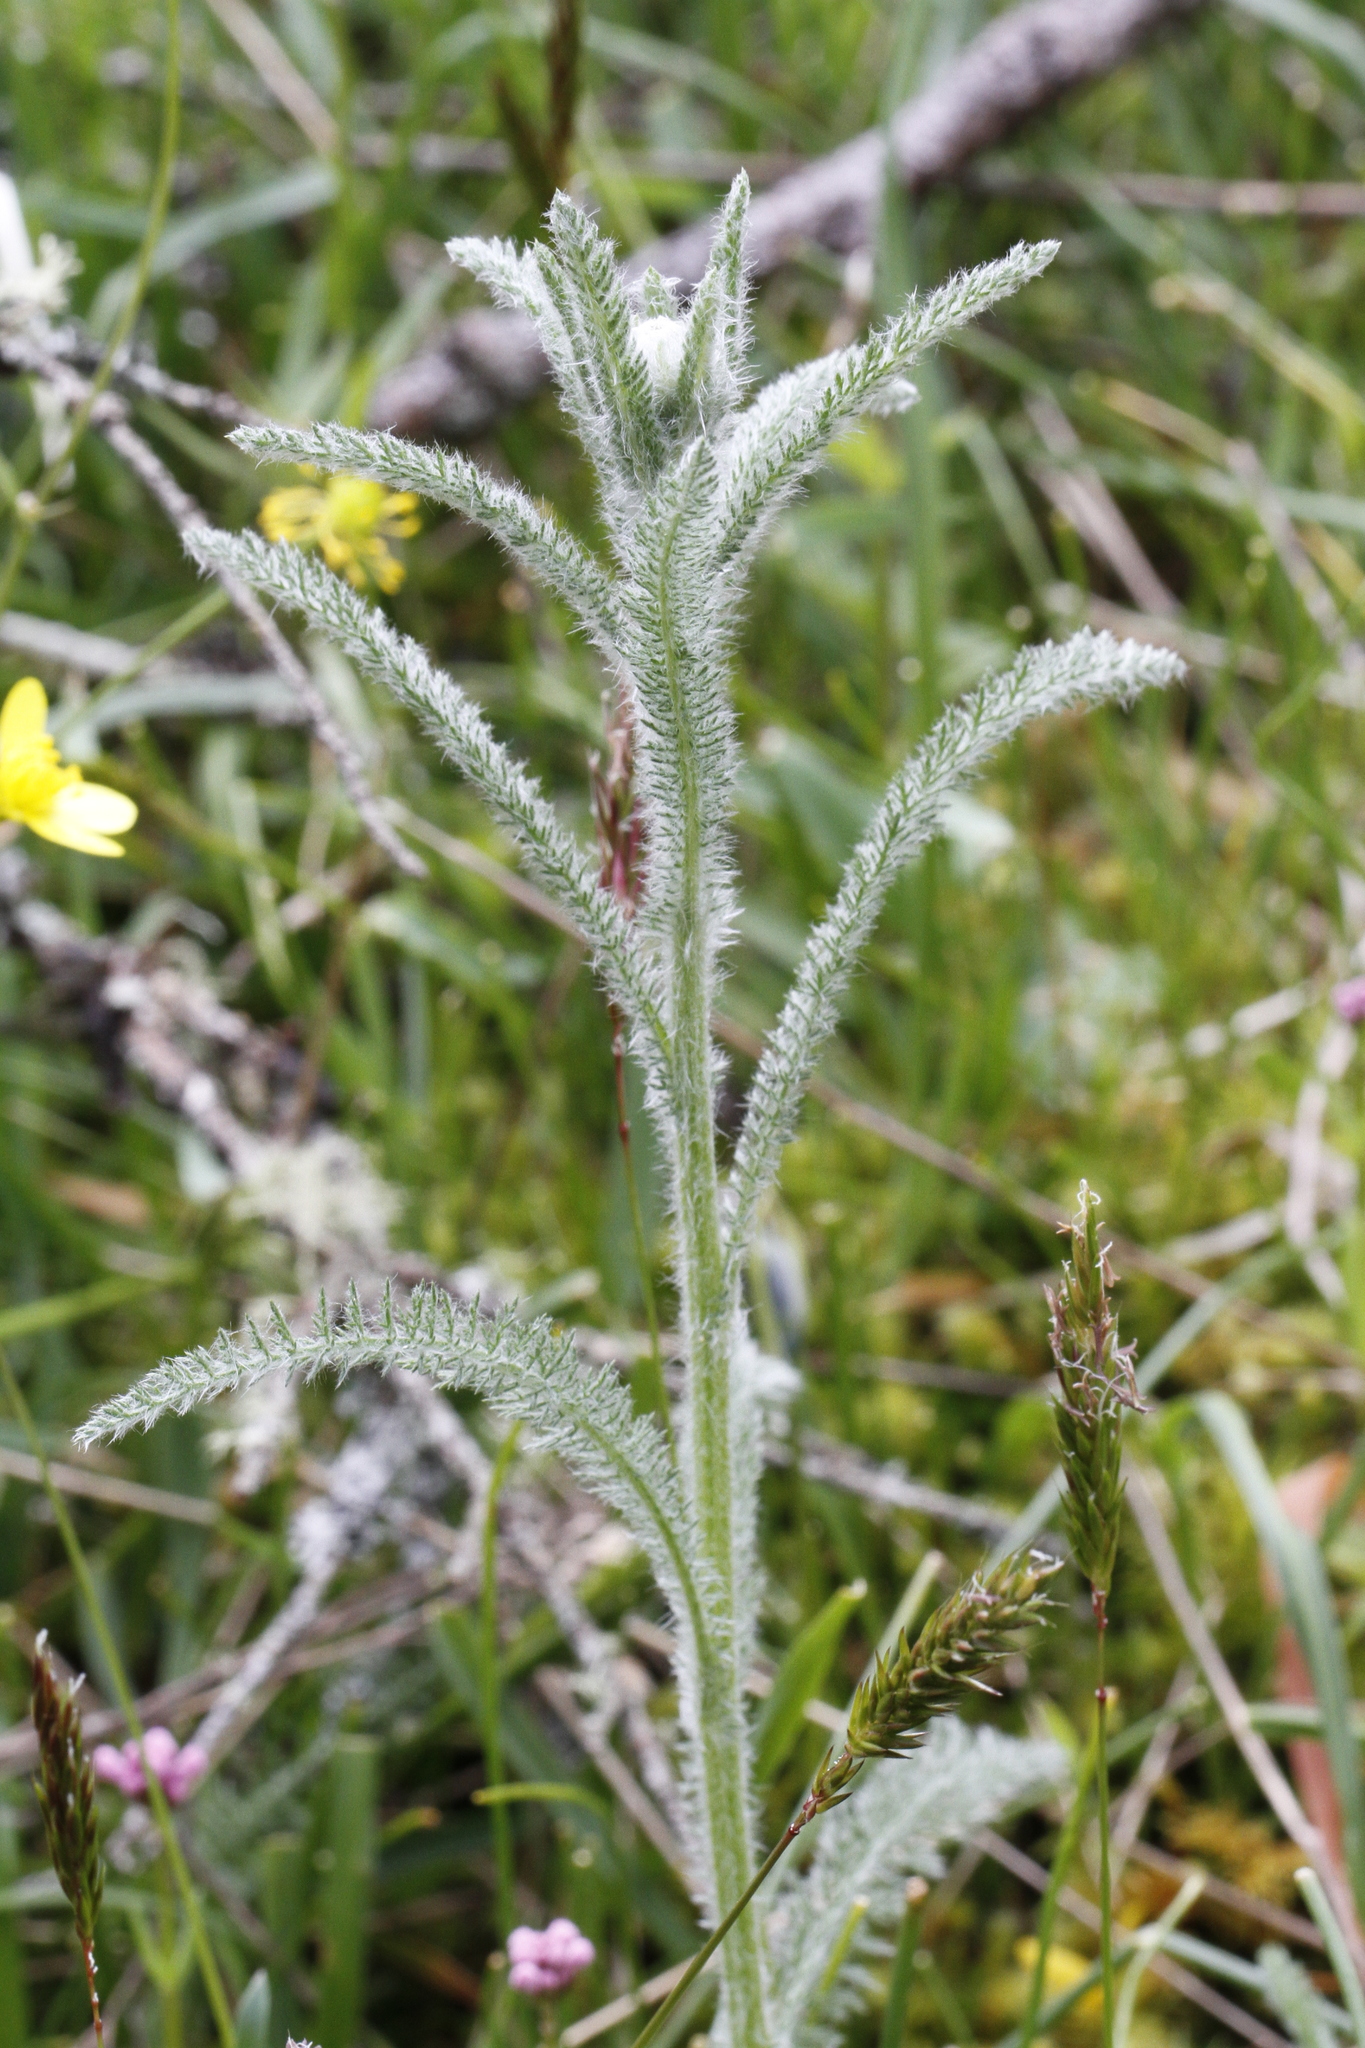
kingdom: Plantae
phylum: Tracheophyta
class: Magnoliopsida
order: Asterales
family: Asteraceae
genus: Achillea
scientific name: Achillea millefolium
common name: Yarrow
